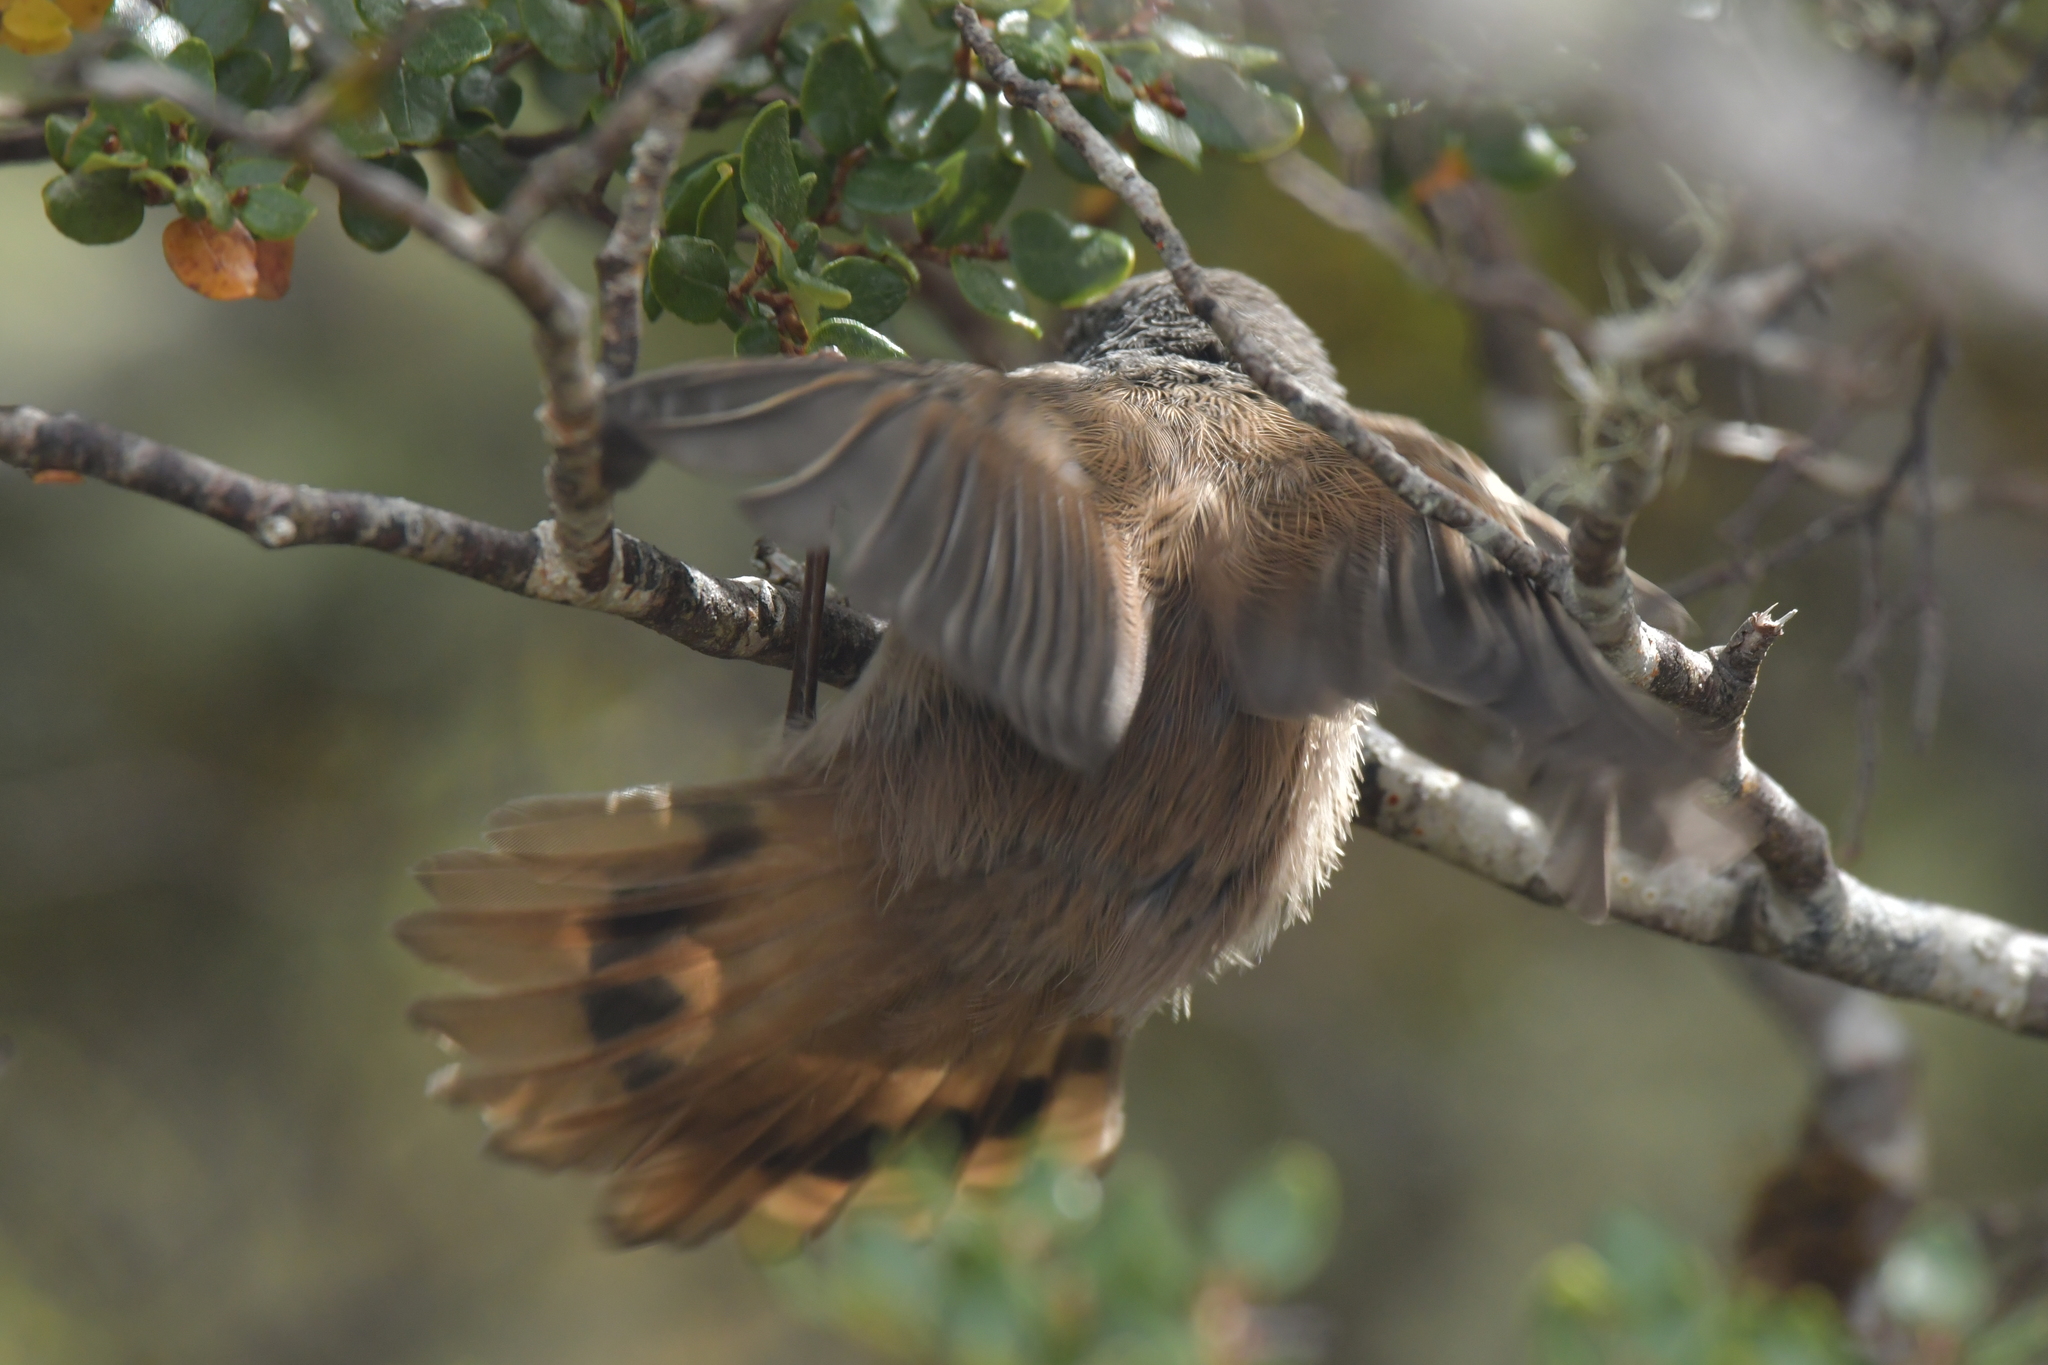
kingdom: Animalia
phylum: Chordata
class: Aves
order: Passeriformes
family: Acanthizidae
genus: Finschia
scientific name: Finschia novaeseelandiae
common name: Pipipi
